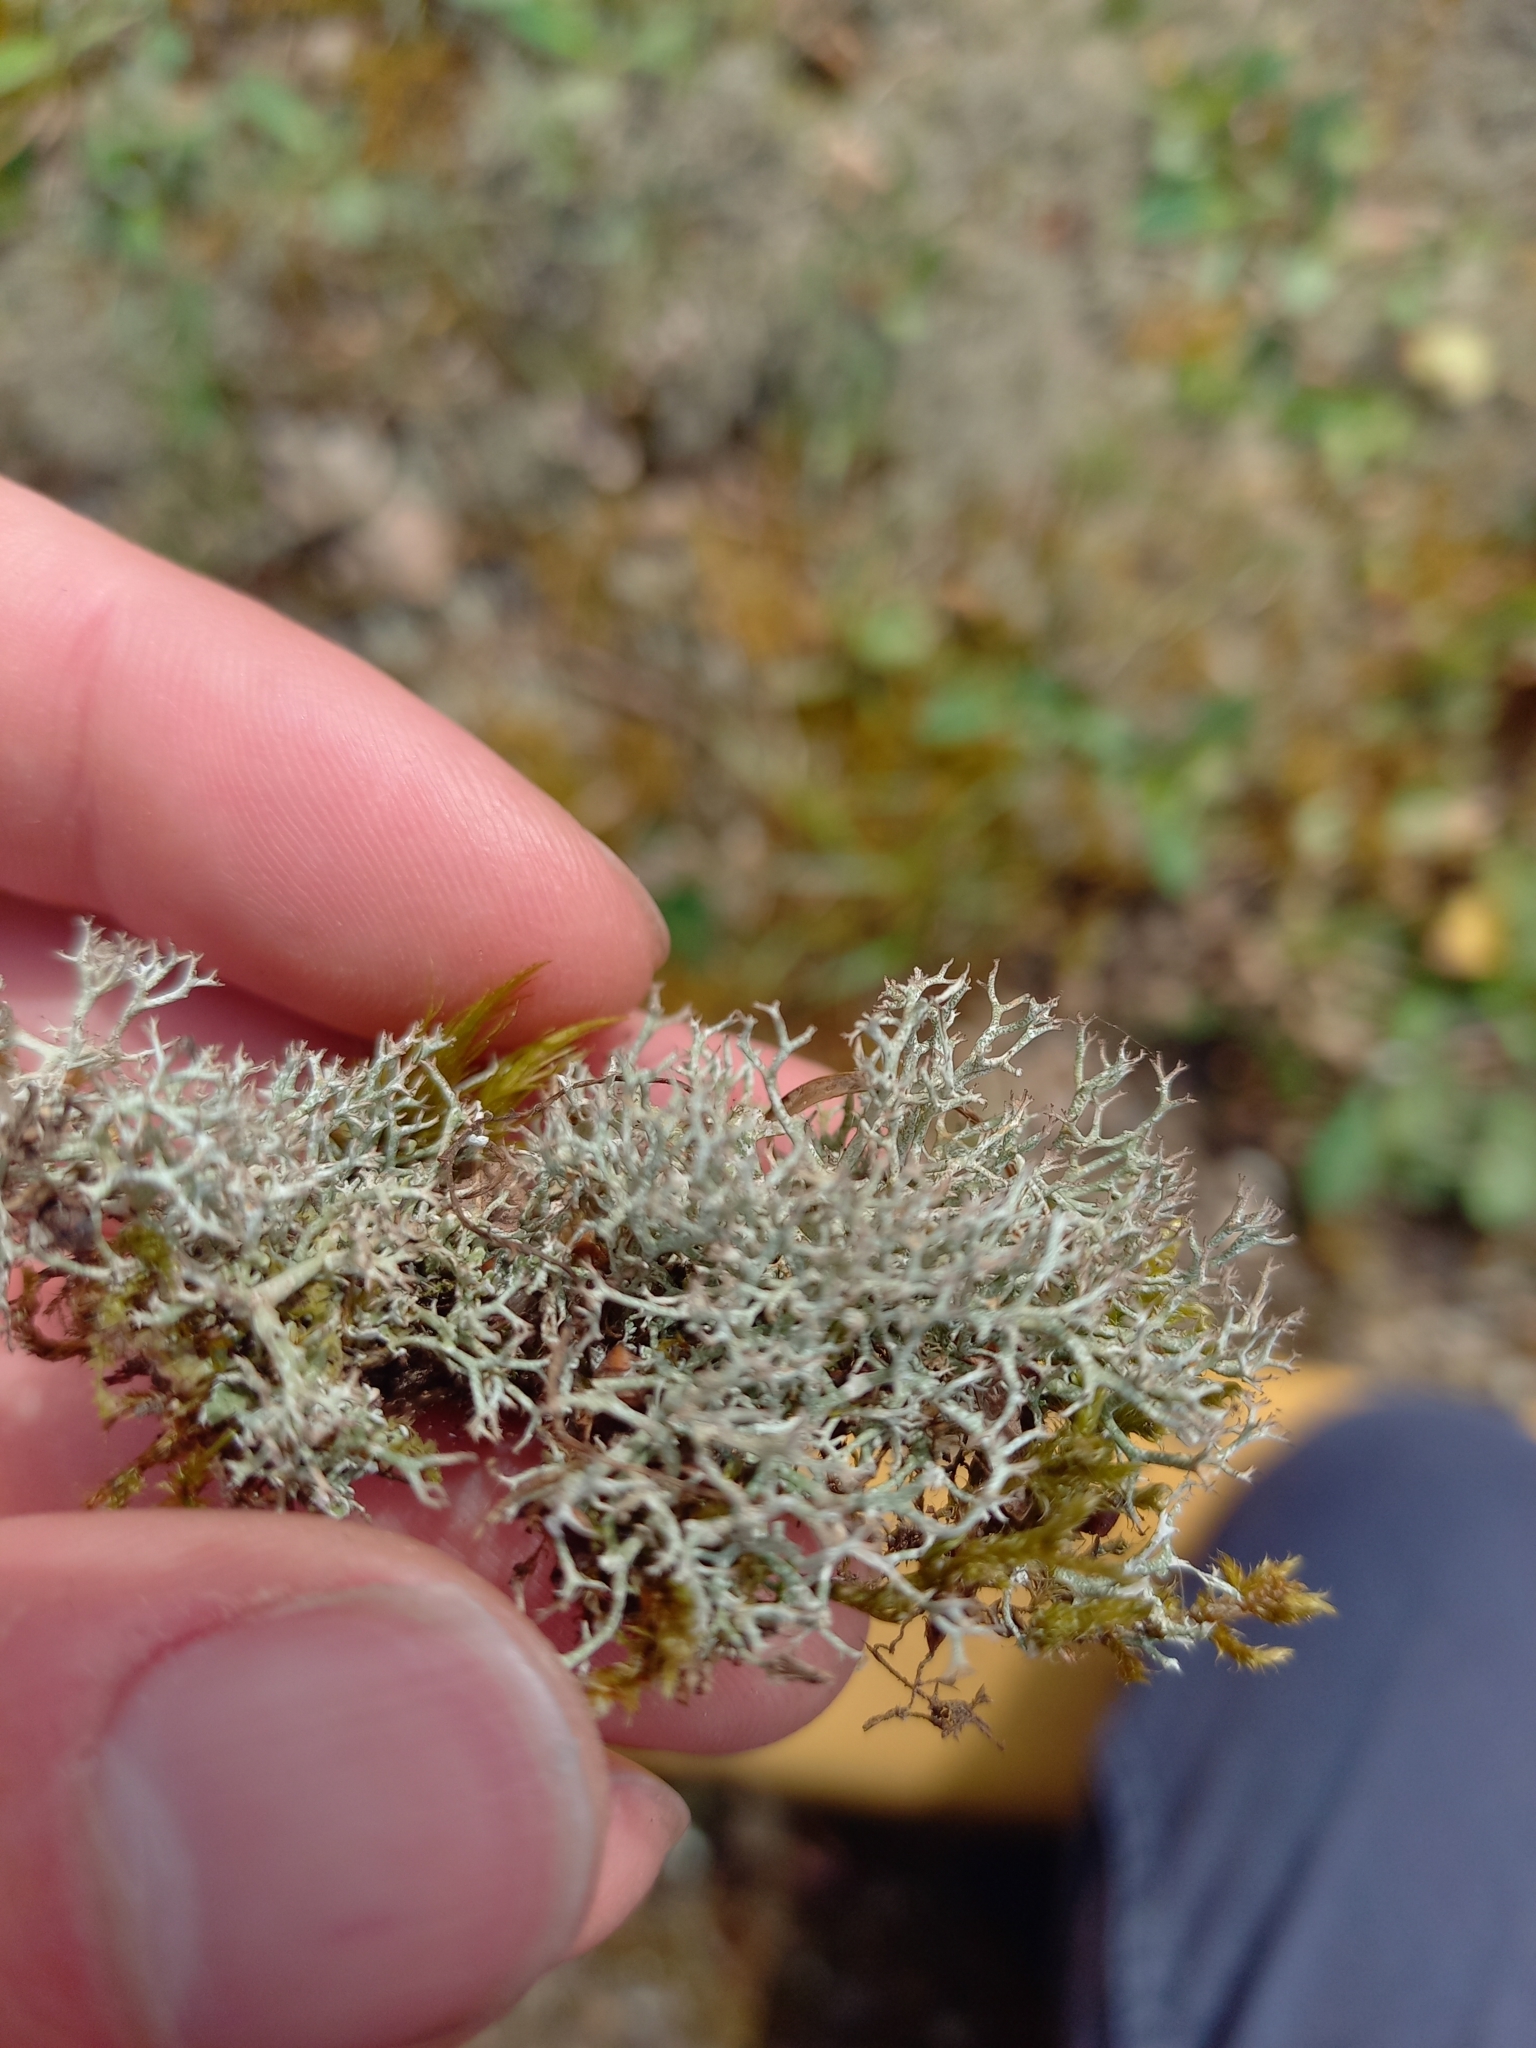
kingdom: Fungi
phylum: Ascomycota
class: Lecanoromycetes
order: Lecanorales
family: Cladoniaceae
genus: Cladonia
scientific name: Cladonia rangiformis
